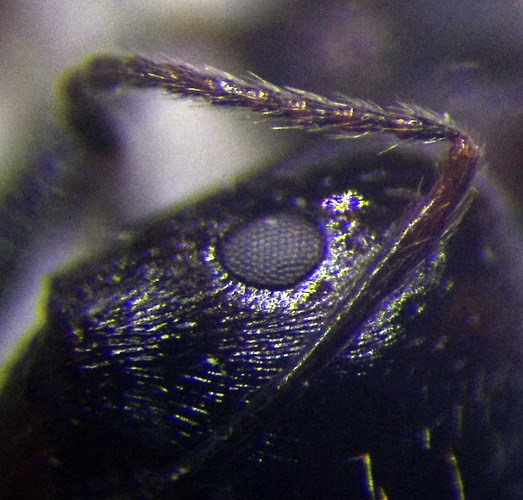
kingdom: Animalia
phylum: Arthropoda
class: Insecta
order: Hymenoptera
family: Formicidae
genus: Messor
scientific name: Messor structor
